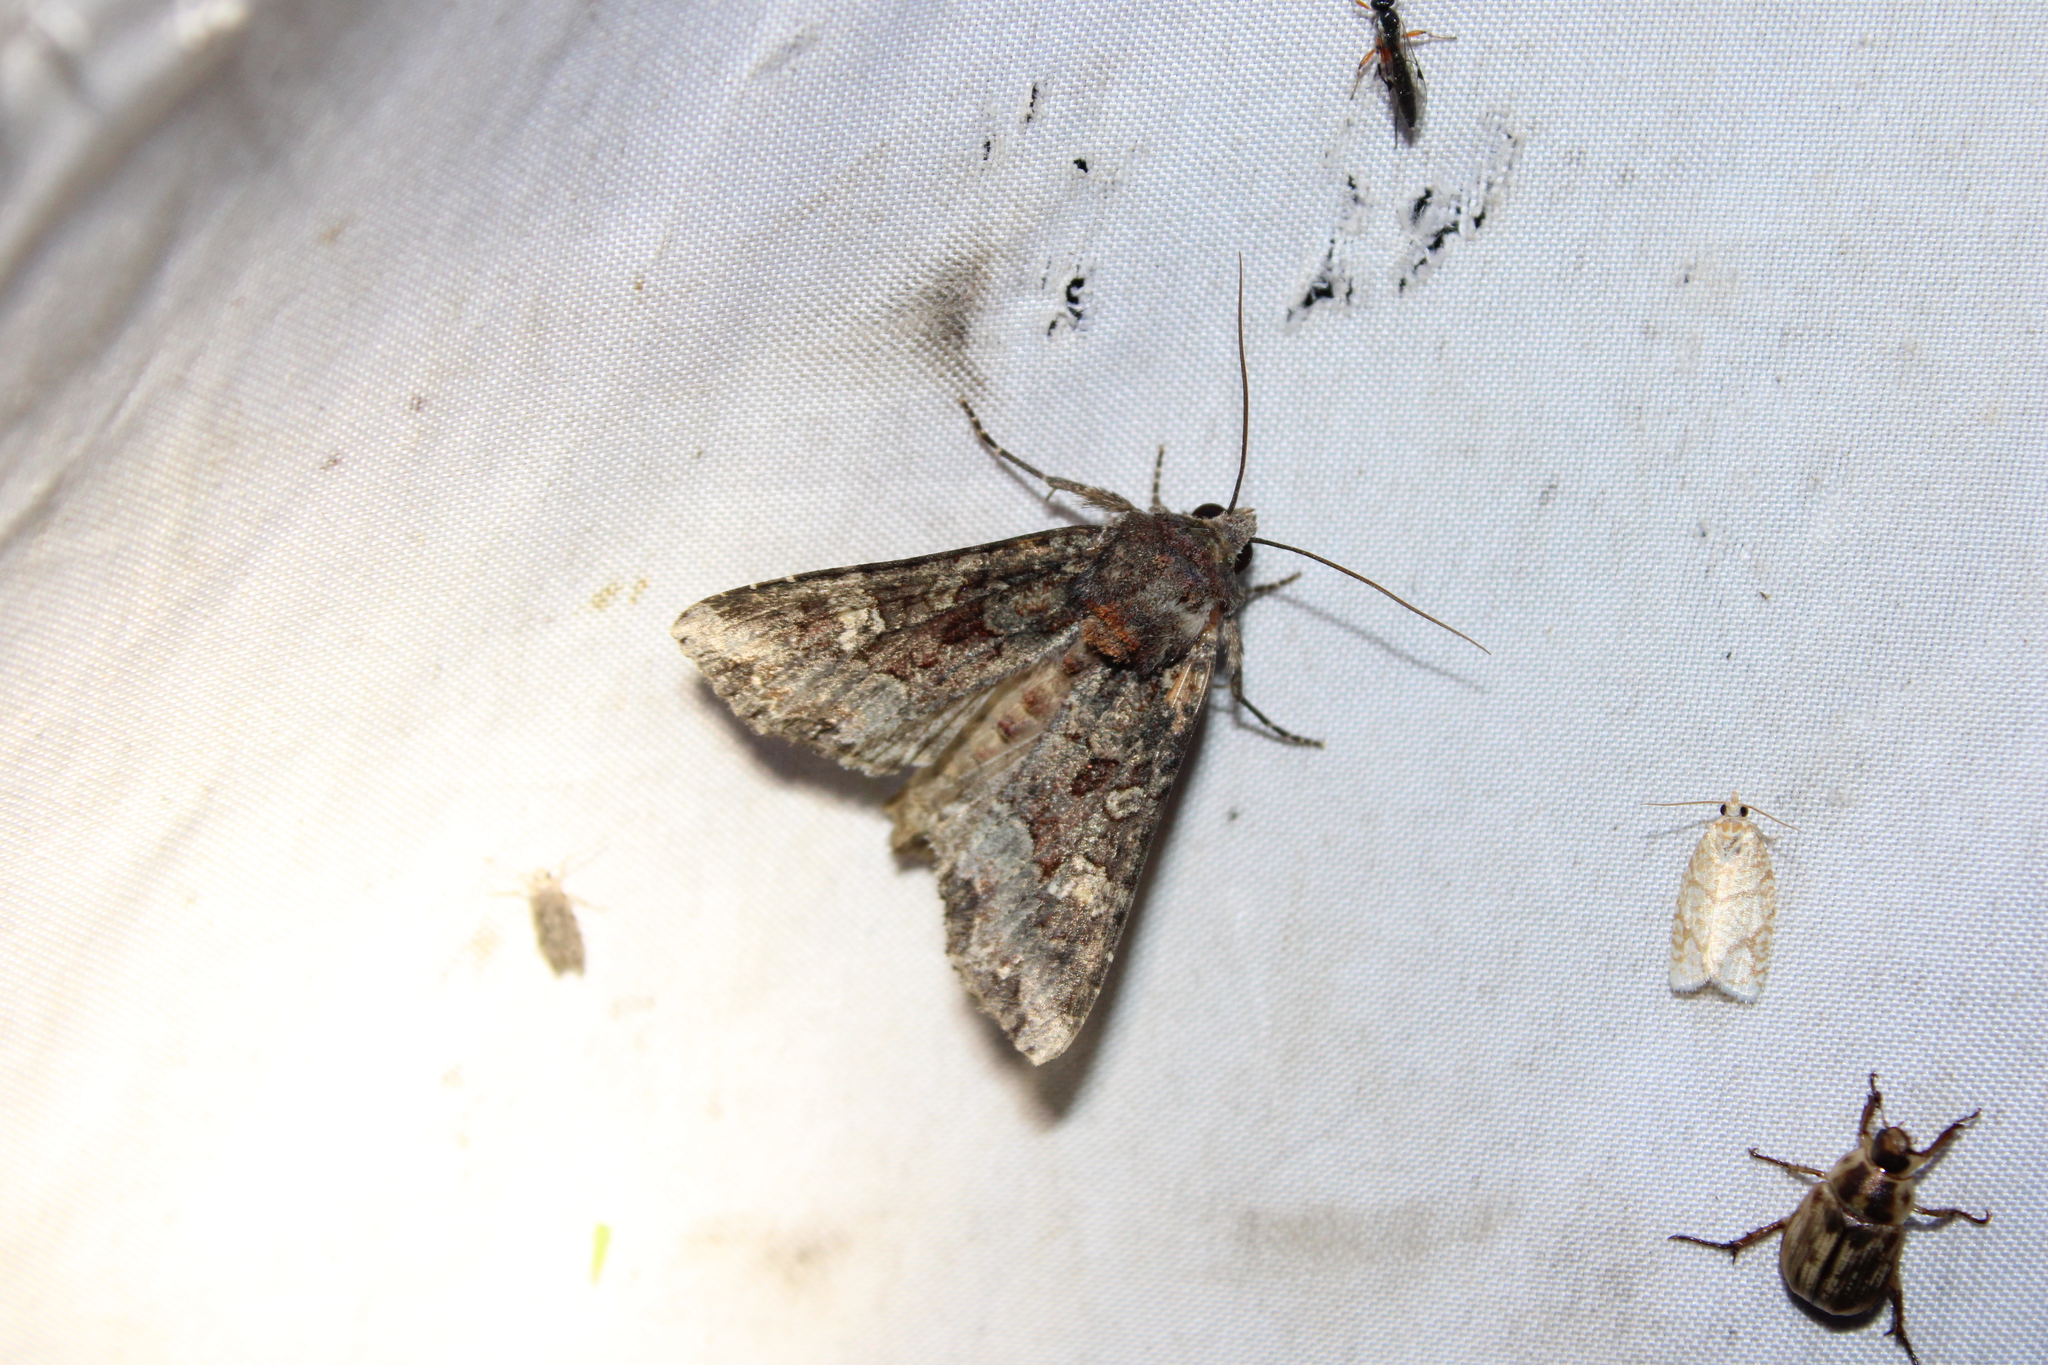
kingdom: Animalia
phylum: Arthropoda
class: Insecta
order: Lepidoptera
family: Noctuidae
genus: Apamea
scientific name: Apamea amputatrix
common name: Yellow-headed cutworm moth
